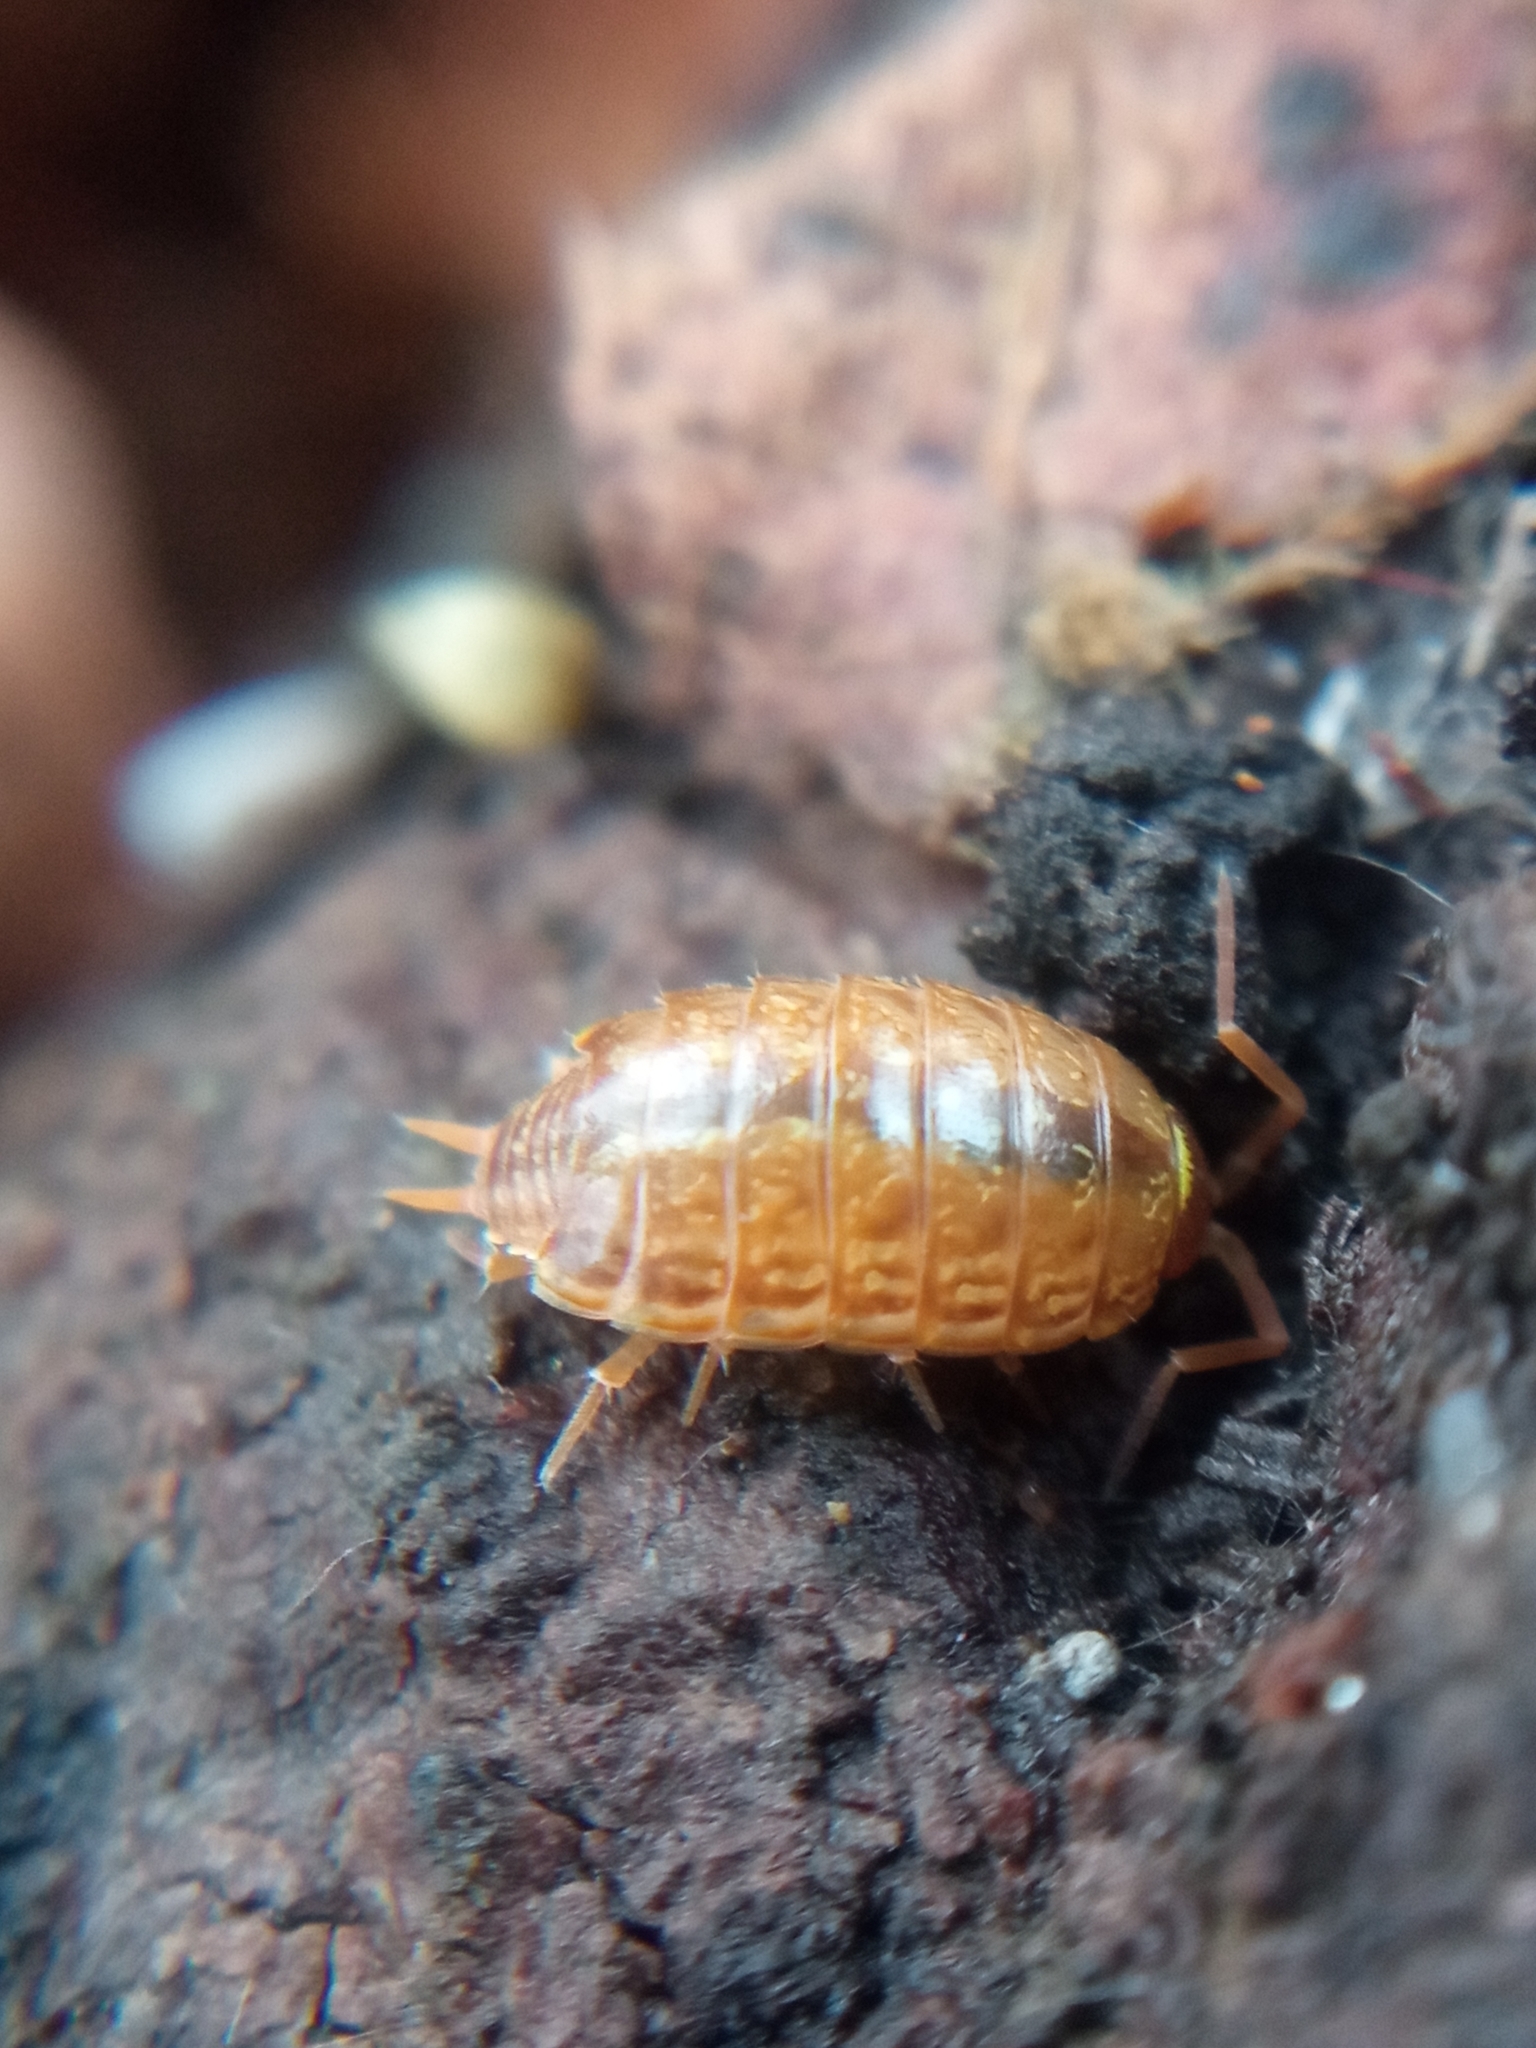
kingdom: Animalia
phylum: Arthropoda
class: Malacostraca
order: Isopoda
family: Philosciidae
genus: Philoscia
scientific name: Philoscia muscorum
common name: Common striped woodlouse
